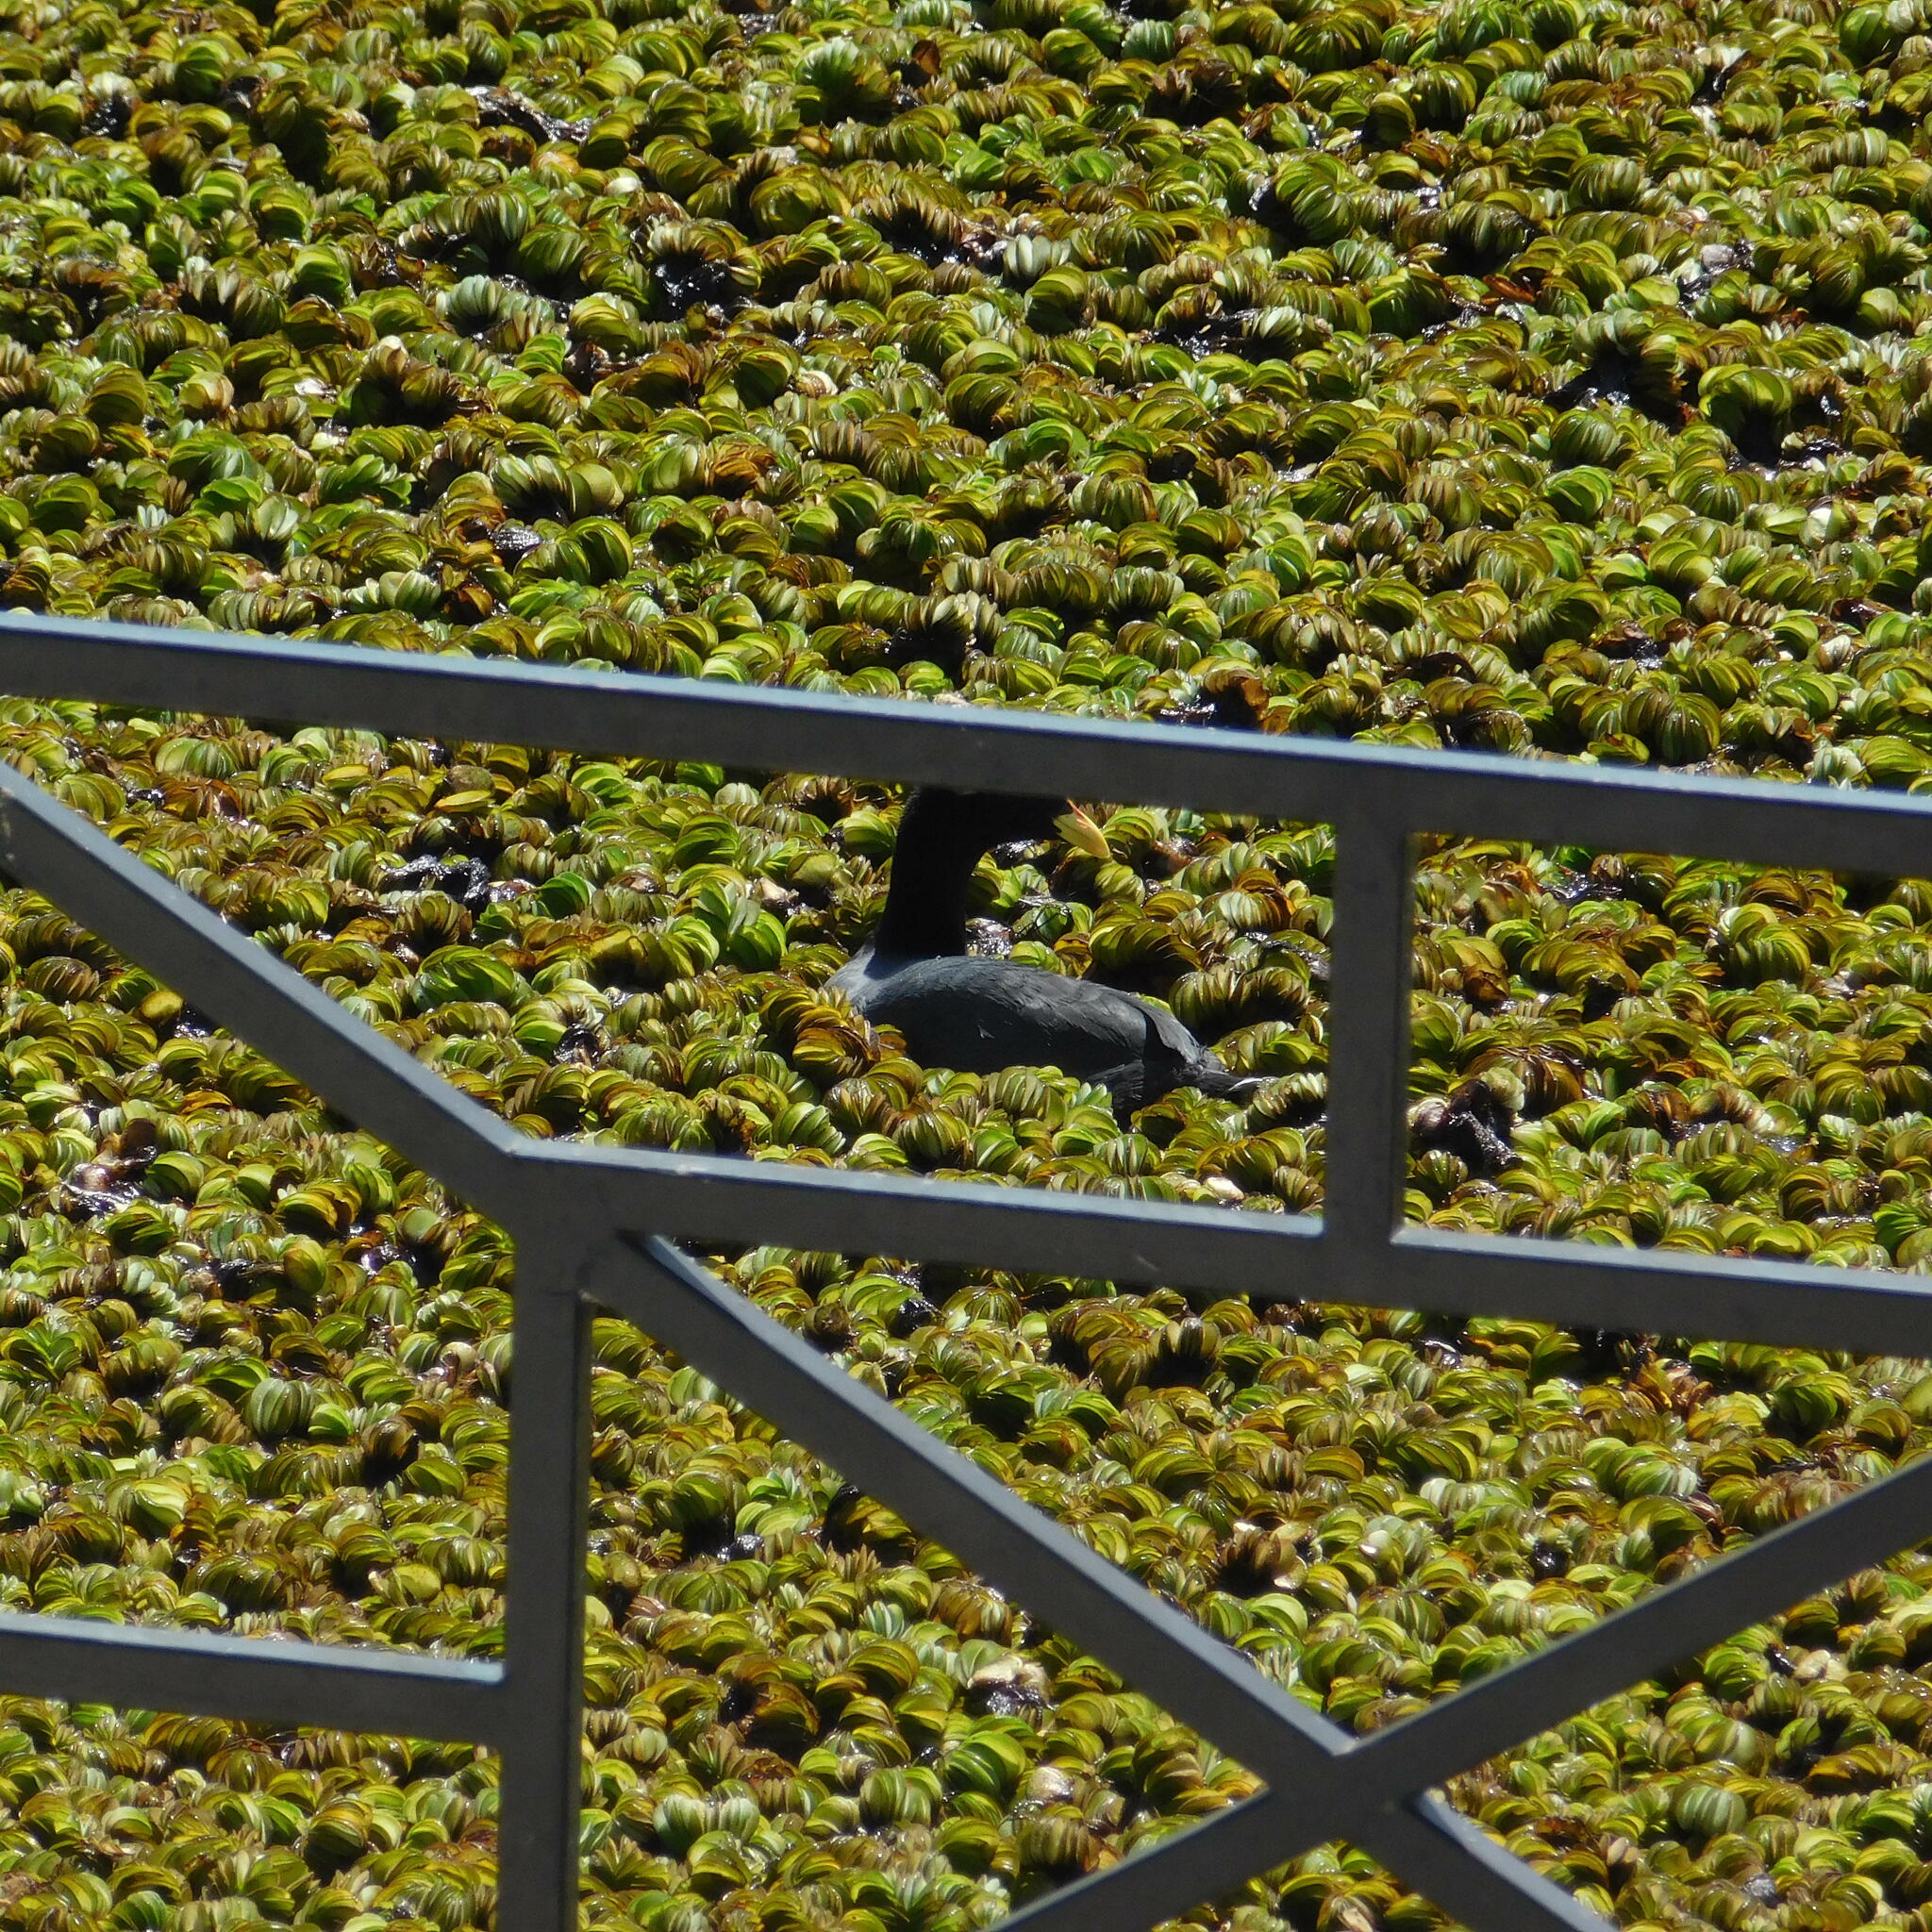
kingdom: Animalia
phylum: Chordata
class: Aves
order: Gruiformes
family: Rallidae
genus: Fulica
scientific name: Fulica armillata
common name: Red-gartered coot
